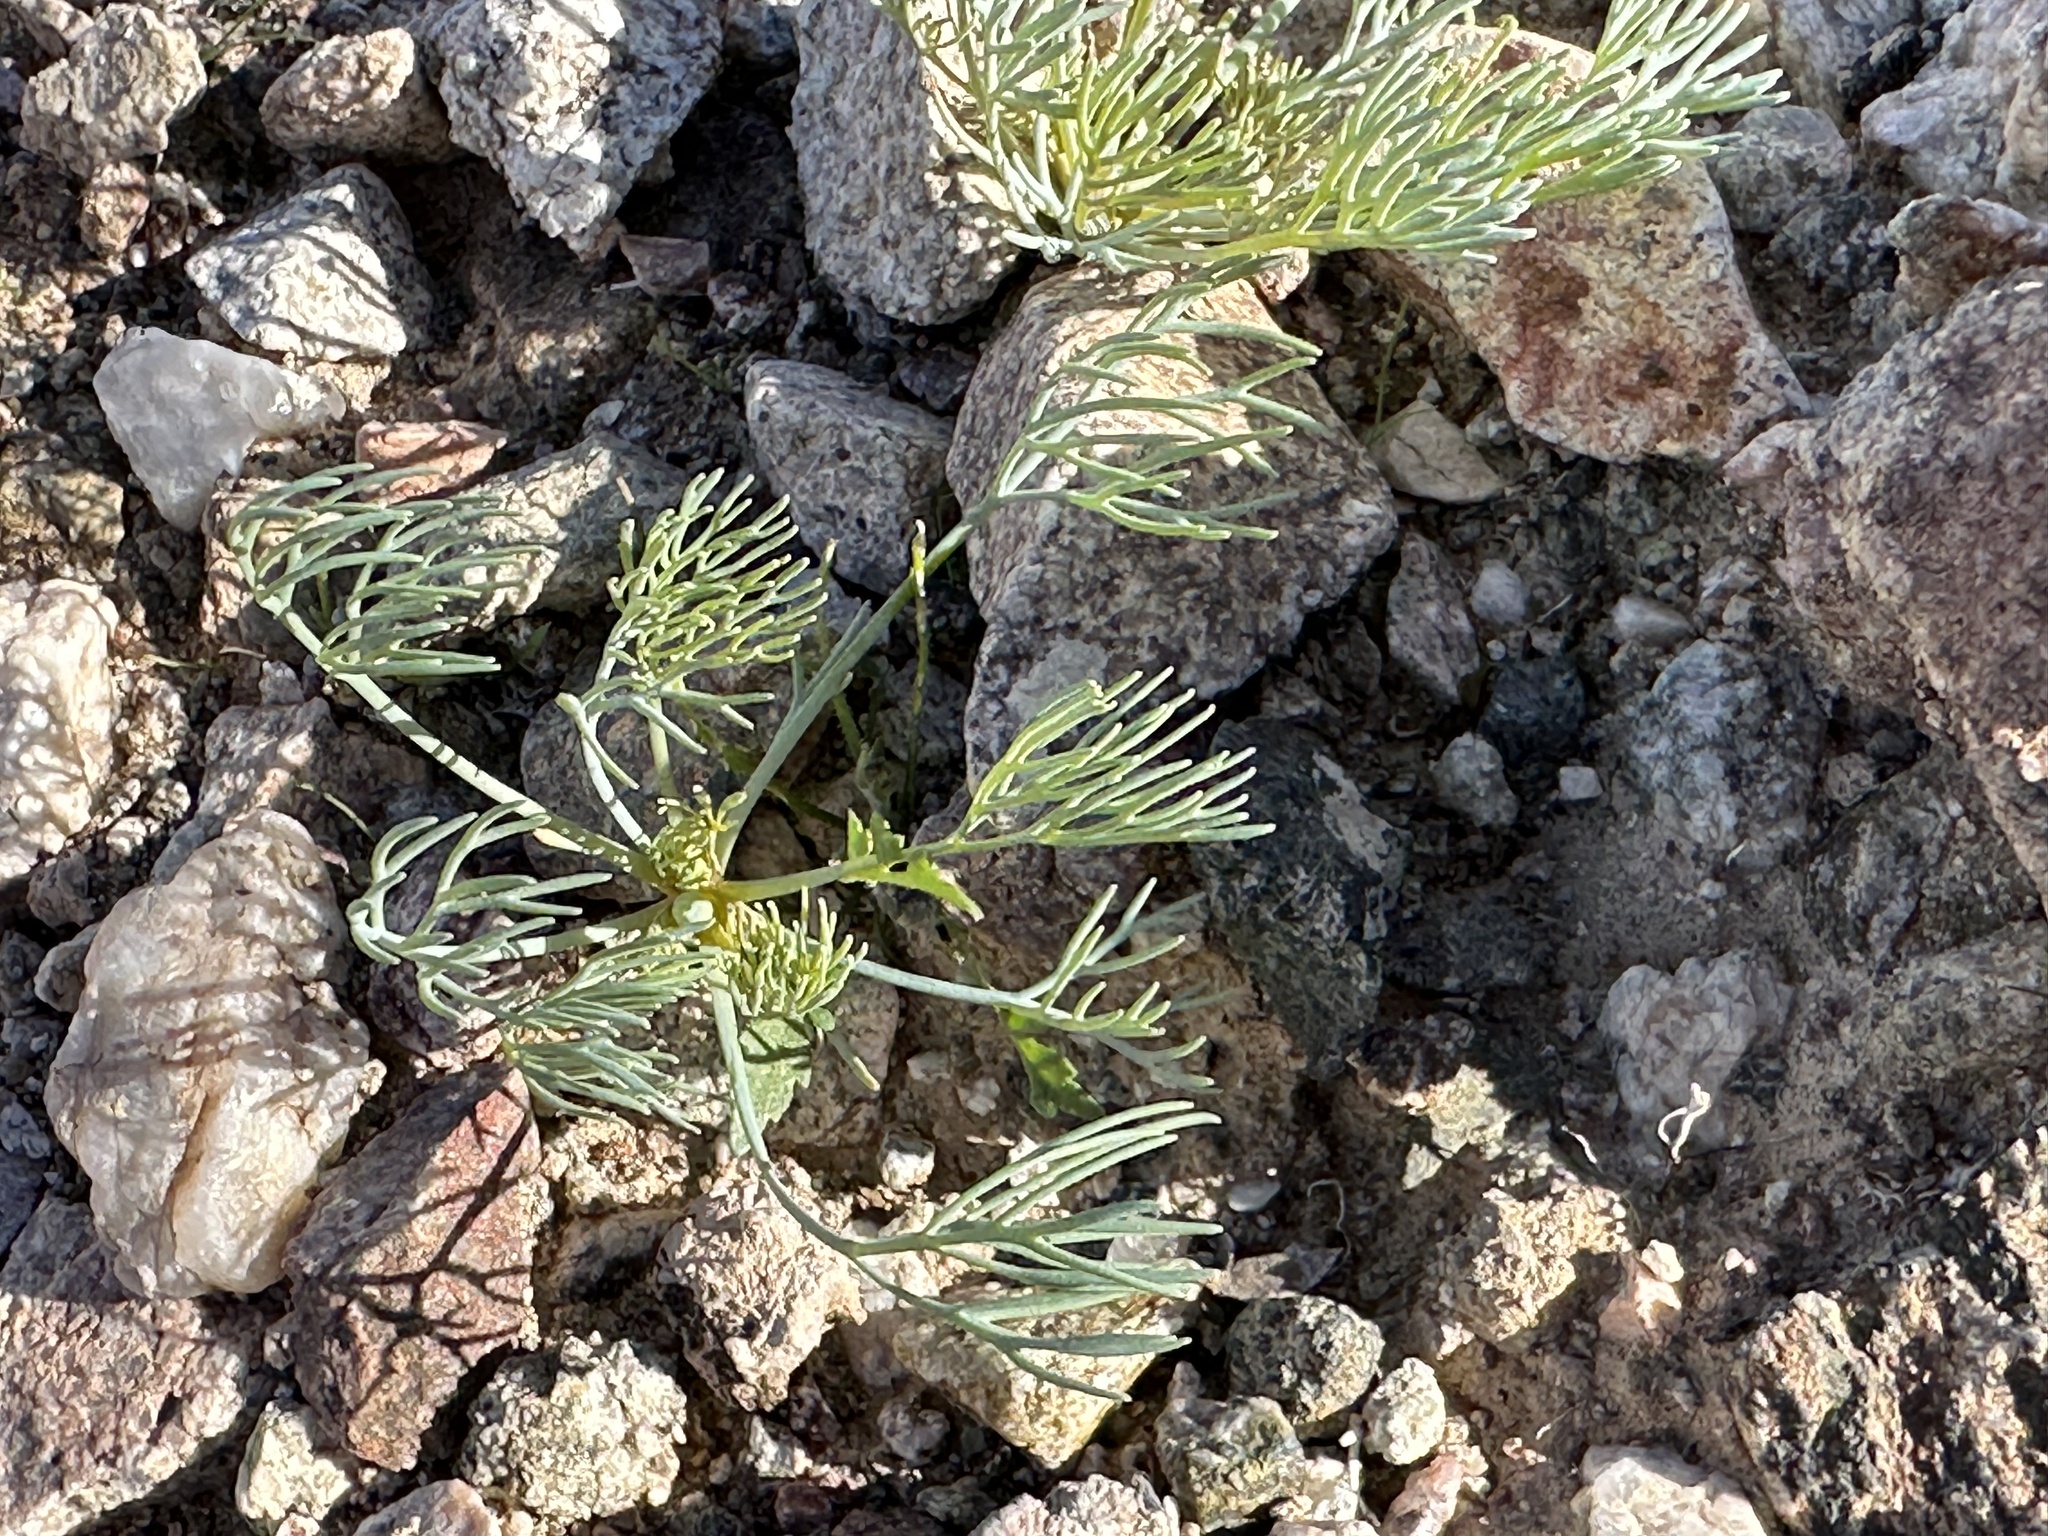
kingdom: Plantae
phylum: Tracheophyta
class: Magnoliopsida
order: Ranunculales
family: Papaveraceae
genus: Eschscholzia
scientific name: Eschscholzia glyptosperma
